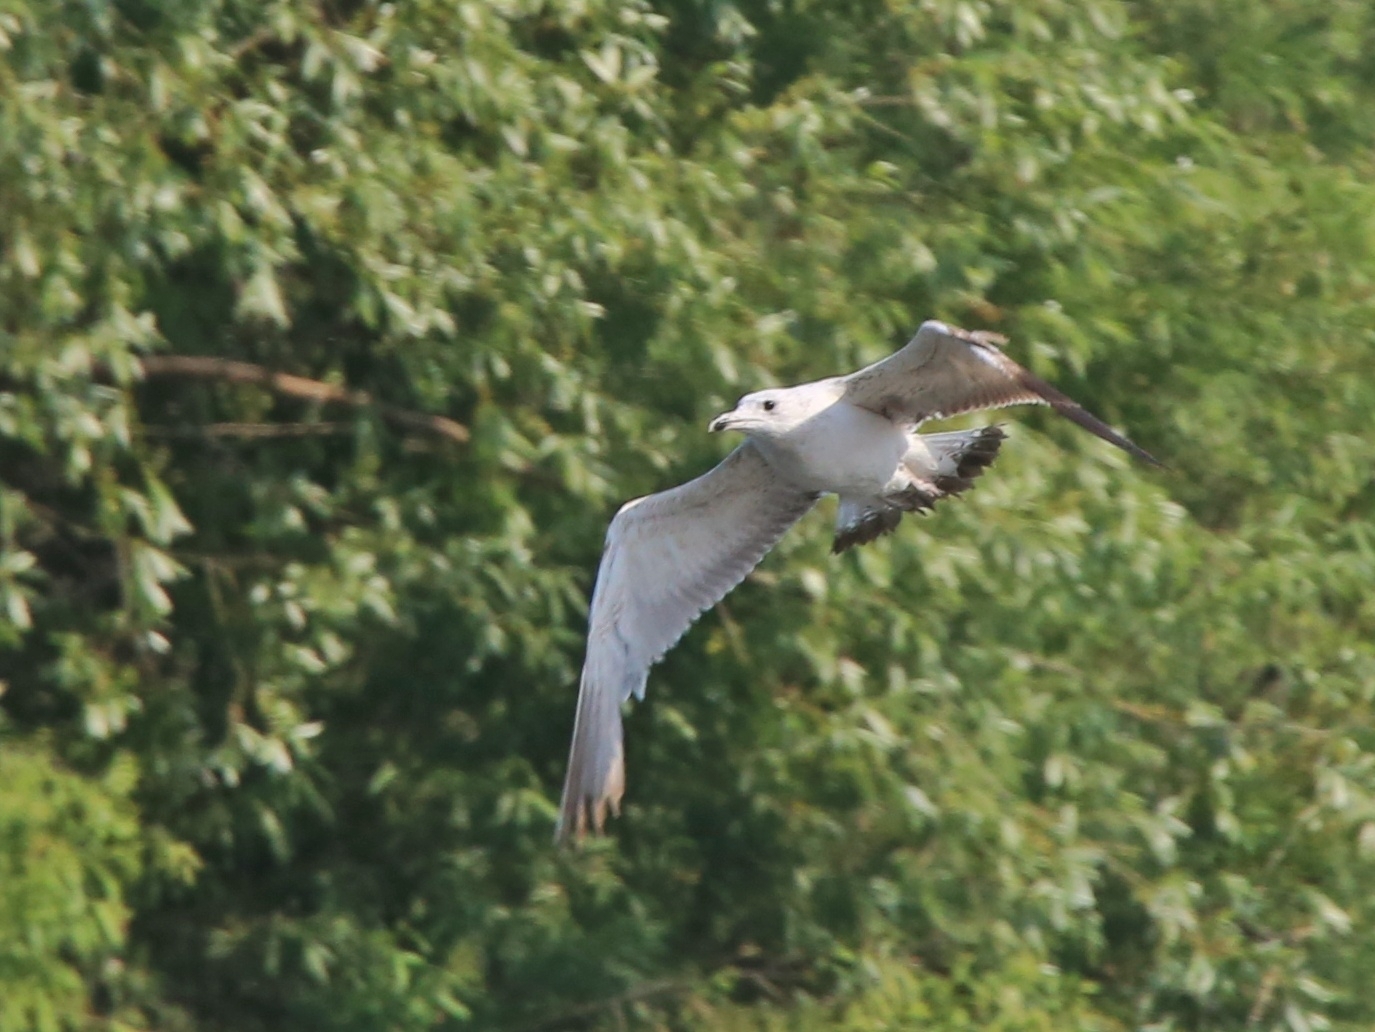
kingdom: Animalia
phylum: Chordata
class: Aves
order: Charadriiformes
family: Laridae
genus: Larus
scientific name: Larus fuscus
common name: Lesser black-backed gull
